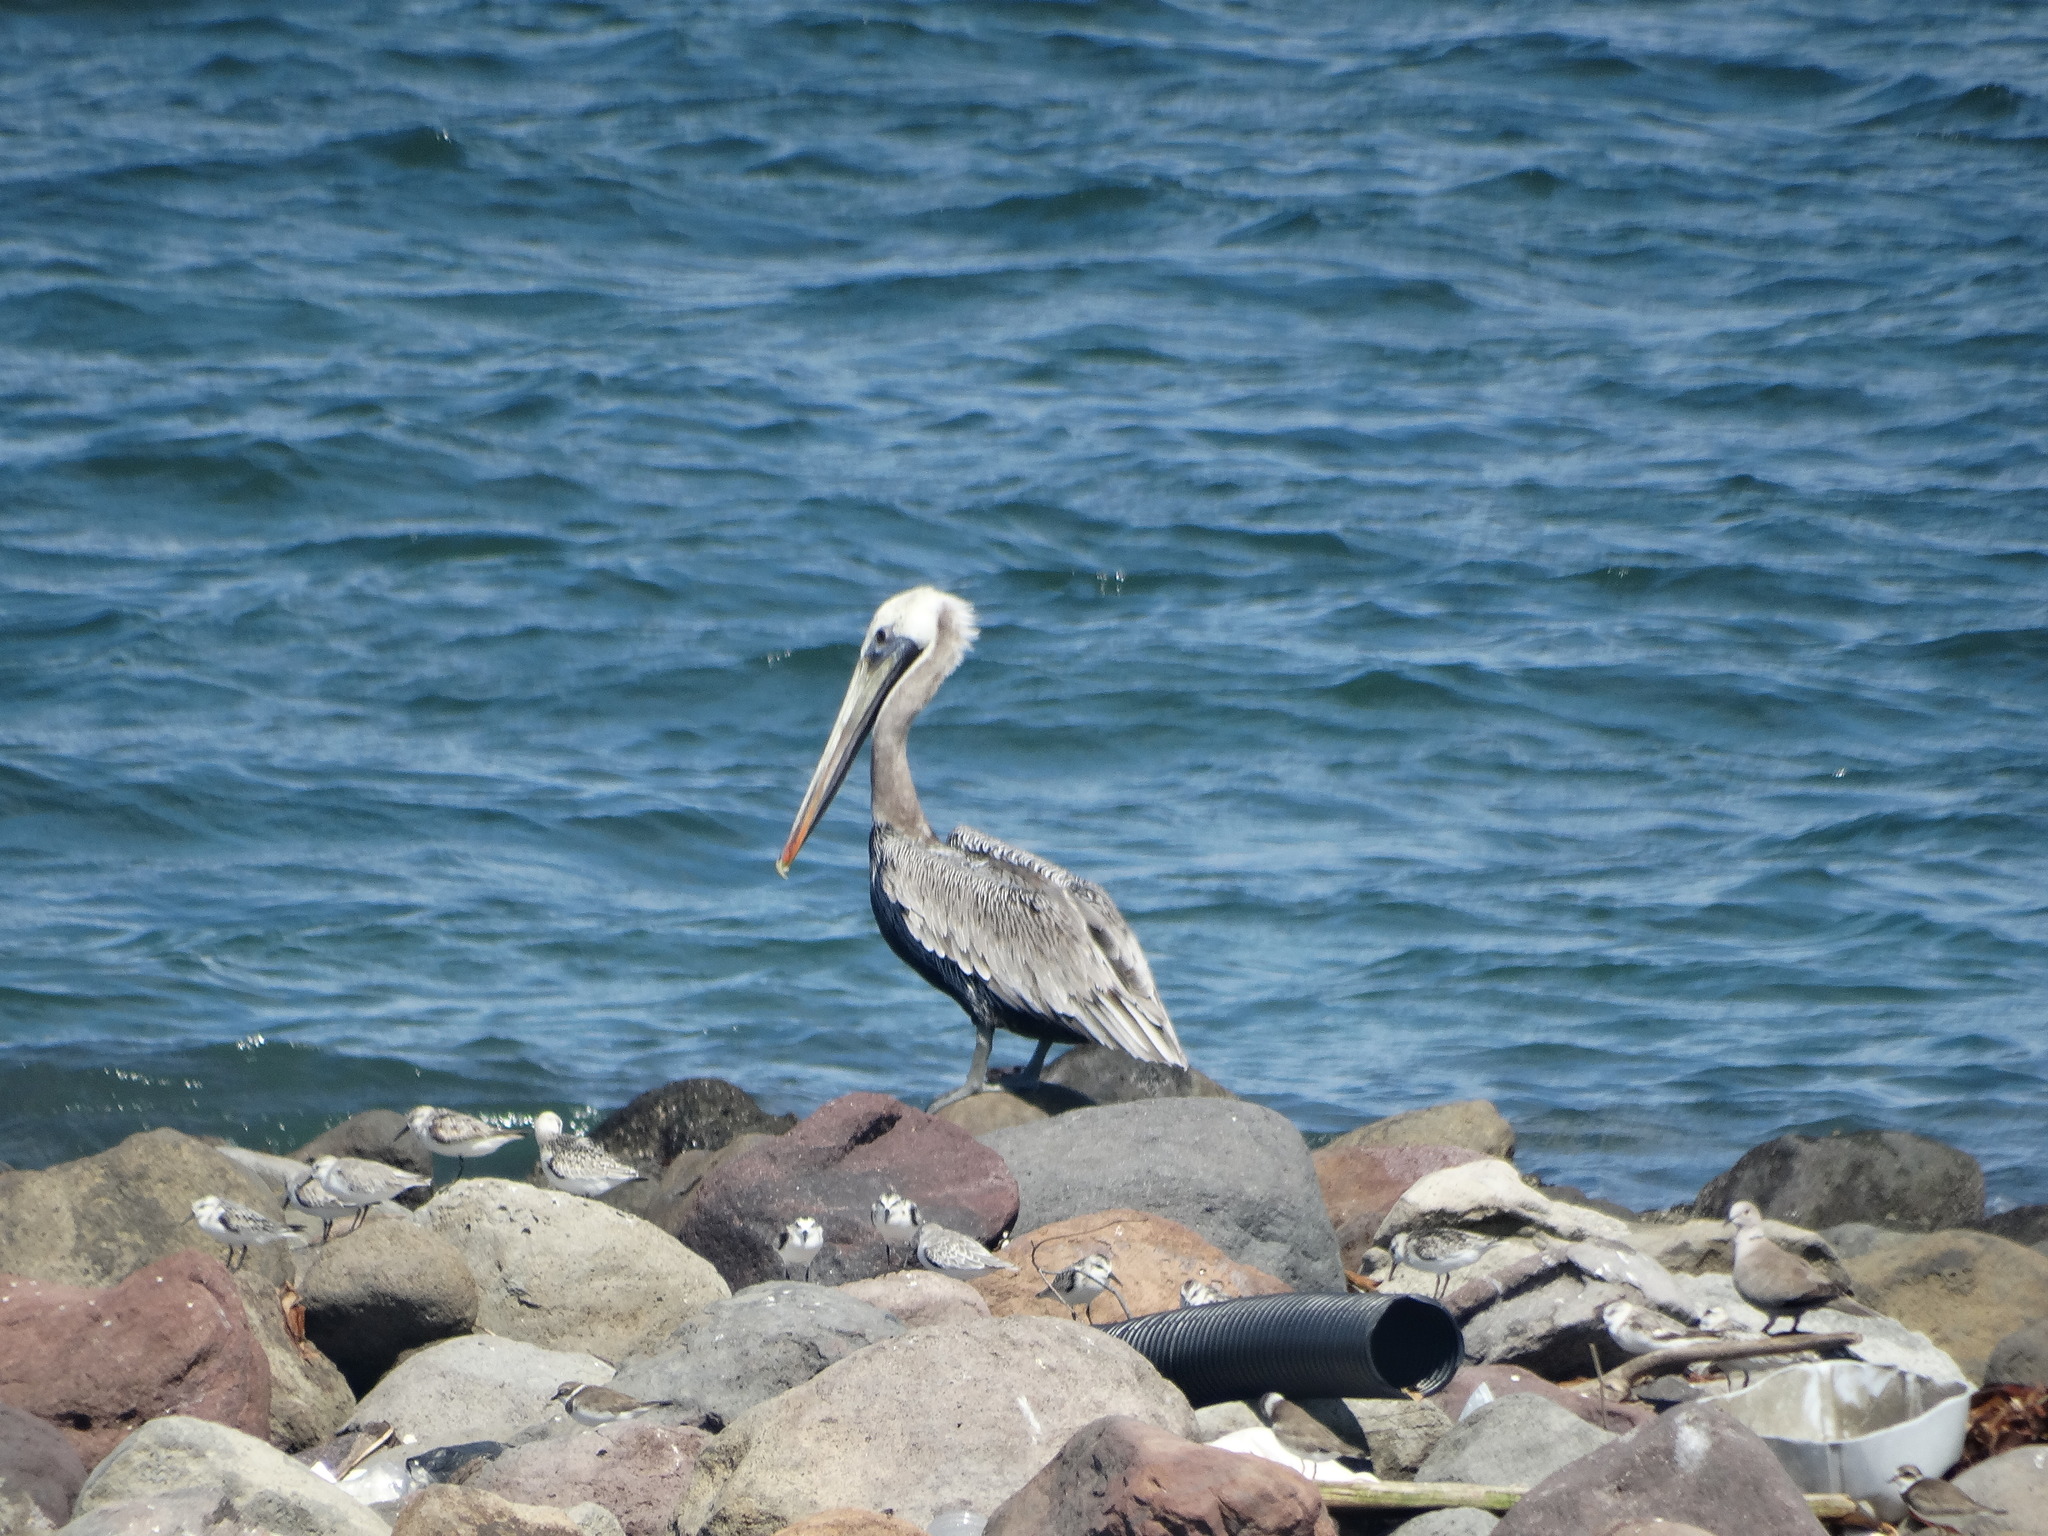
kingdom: Animalia
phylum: Chordata
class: Aves
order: Pelecaniformes
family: Pelecanidae
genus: Pelecanus
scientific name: Pelecanus occidentalis
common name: Brown pelican
